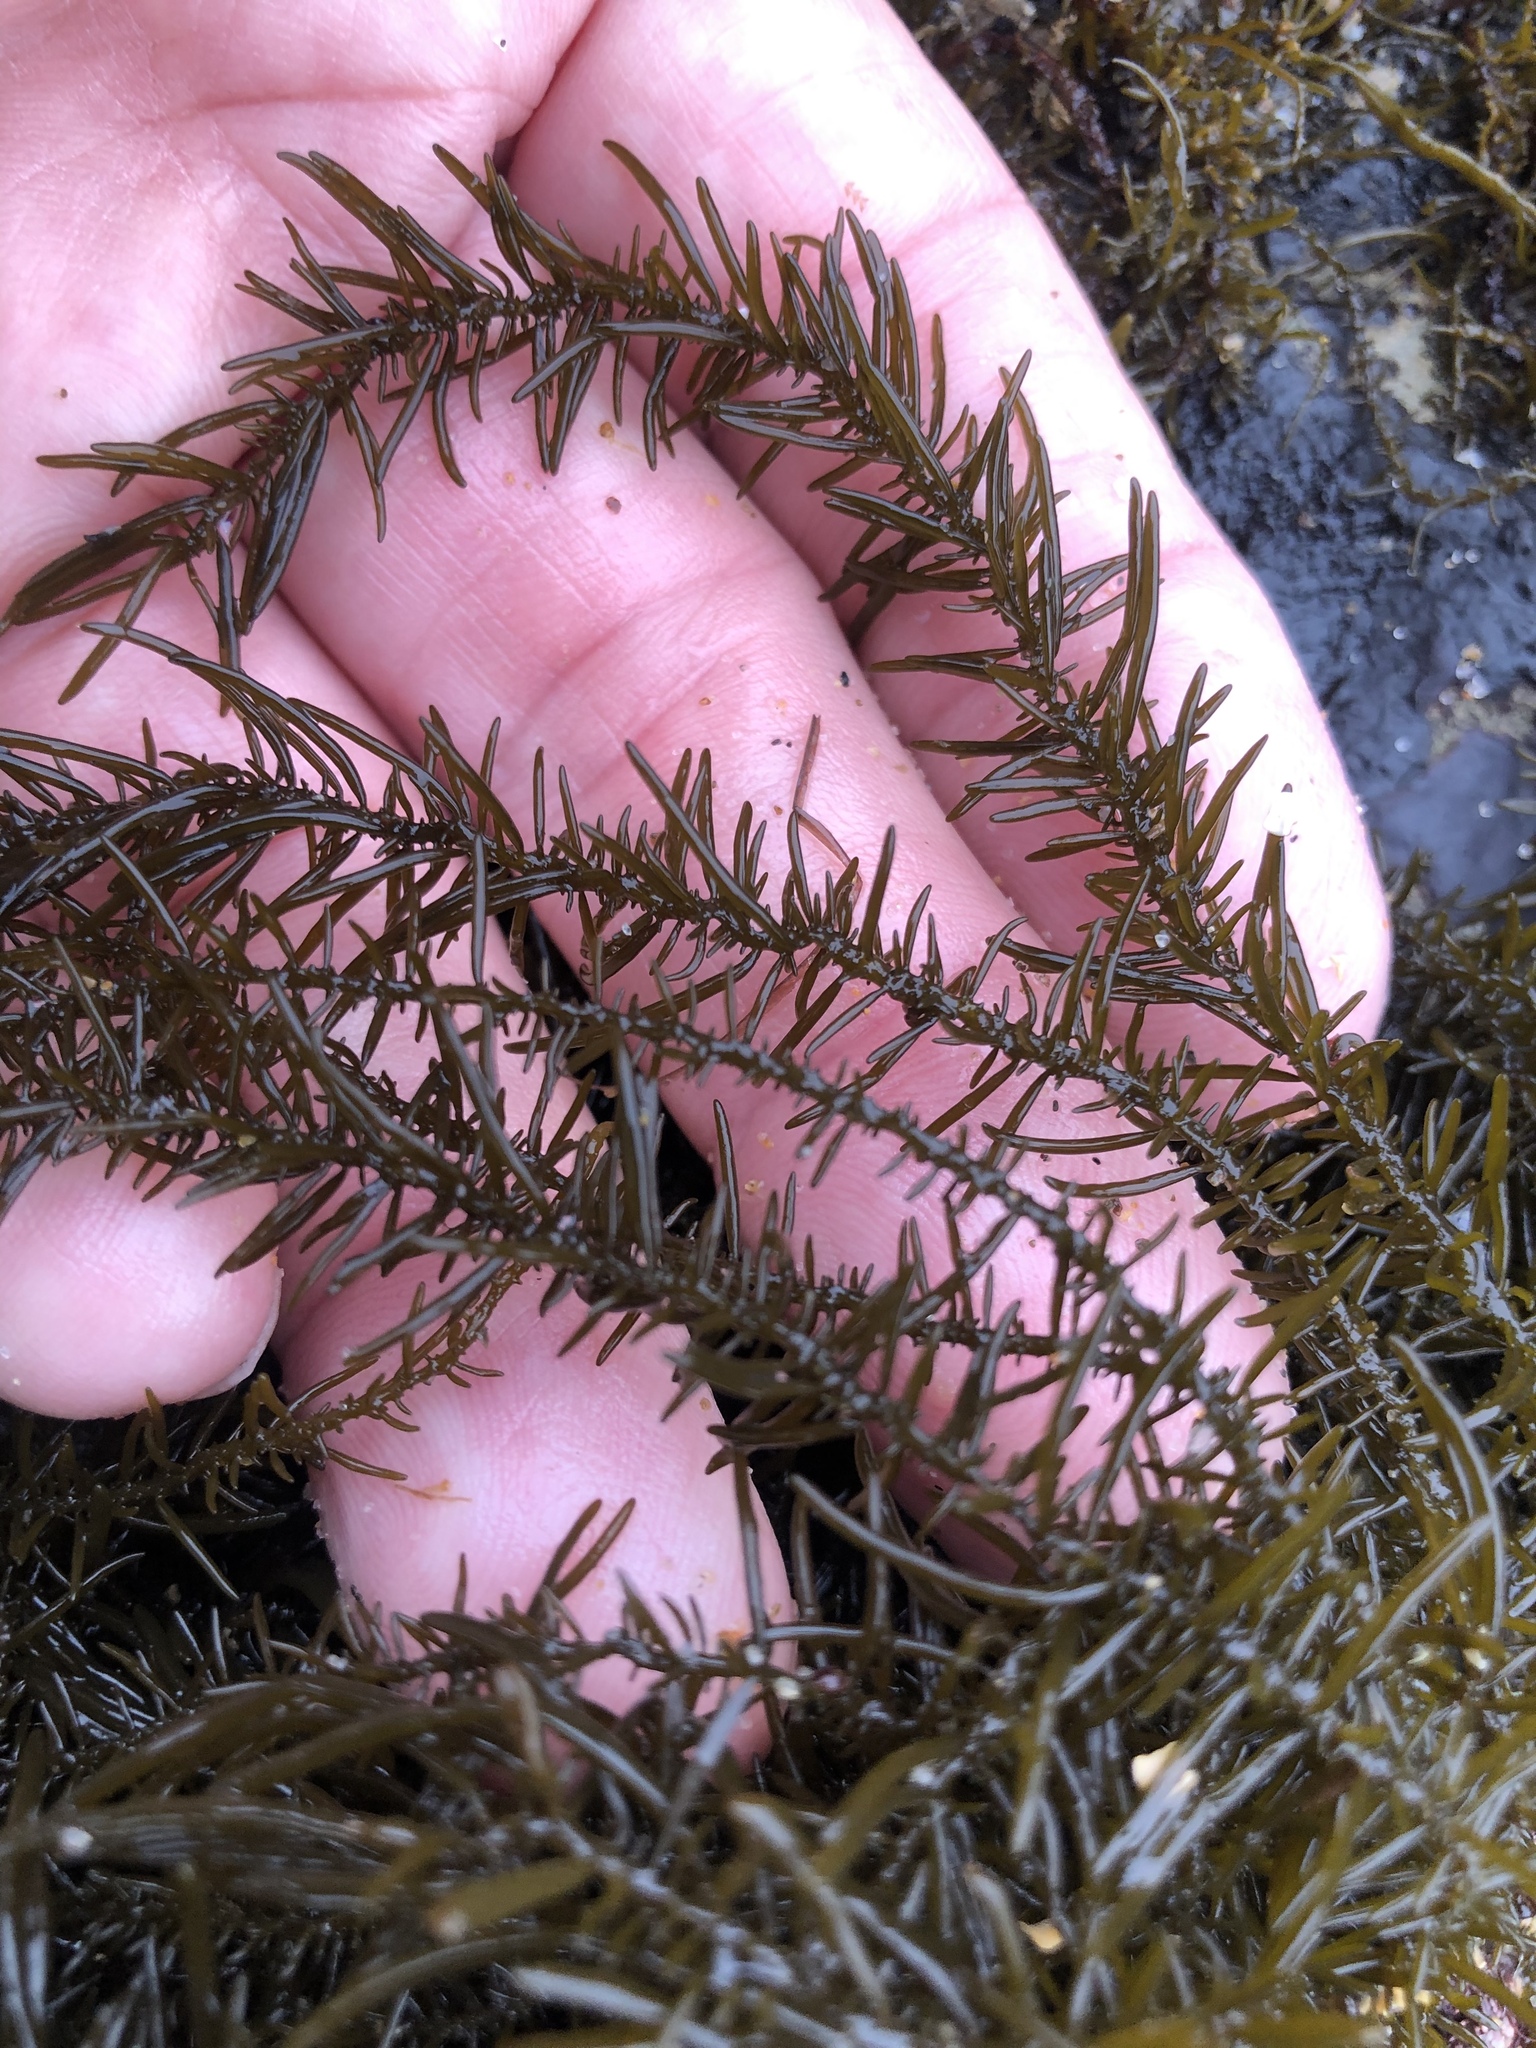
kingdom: Chromista
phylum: Ochrophyta
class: Phaeophyceae
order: Scytosiphonales
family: Scytosiphonaceae
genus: Analipus
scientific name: Analipus japonicus
